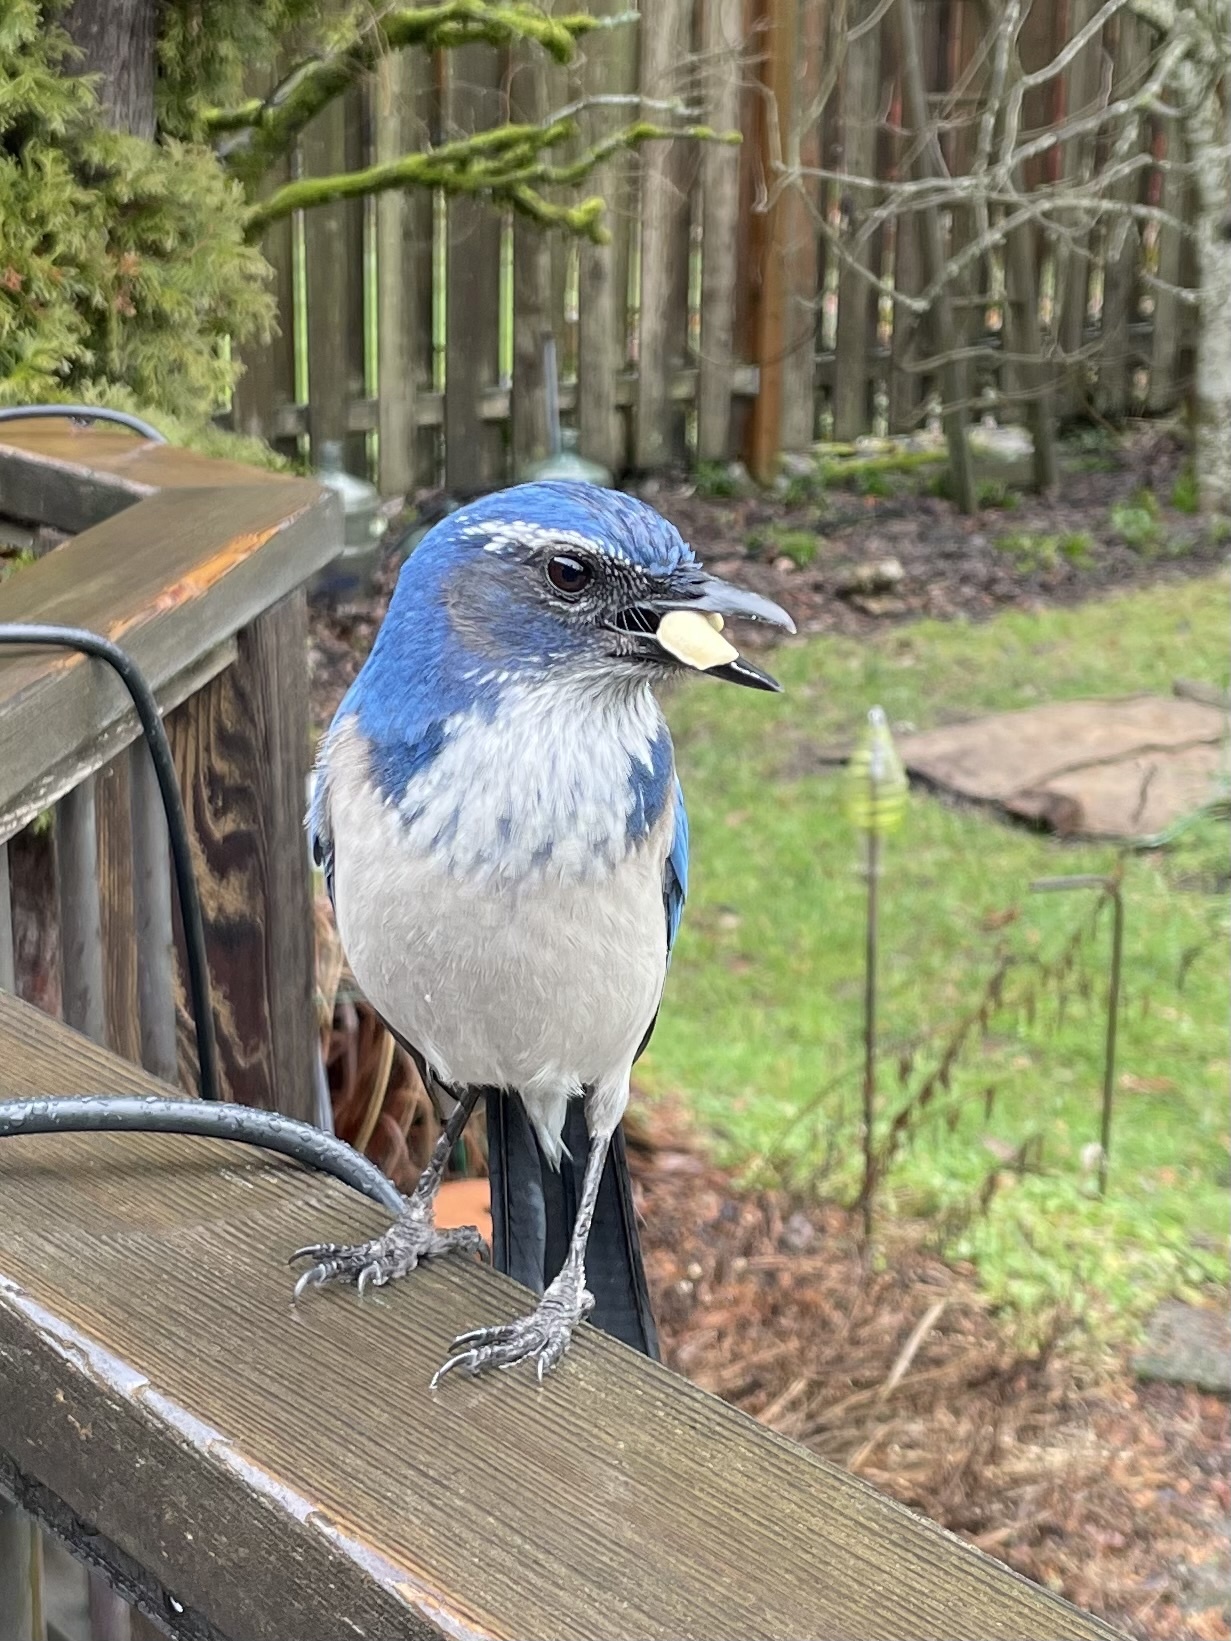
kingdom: Animalia
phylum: Chordata
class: Aves
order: Passeriformes
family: Corvidae
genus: Aphelocoma
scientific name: Aphelocoma californica
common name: California scrub-jay
